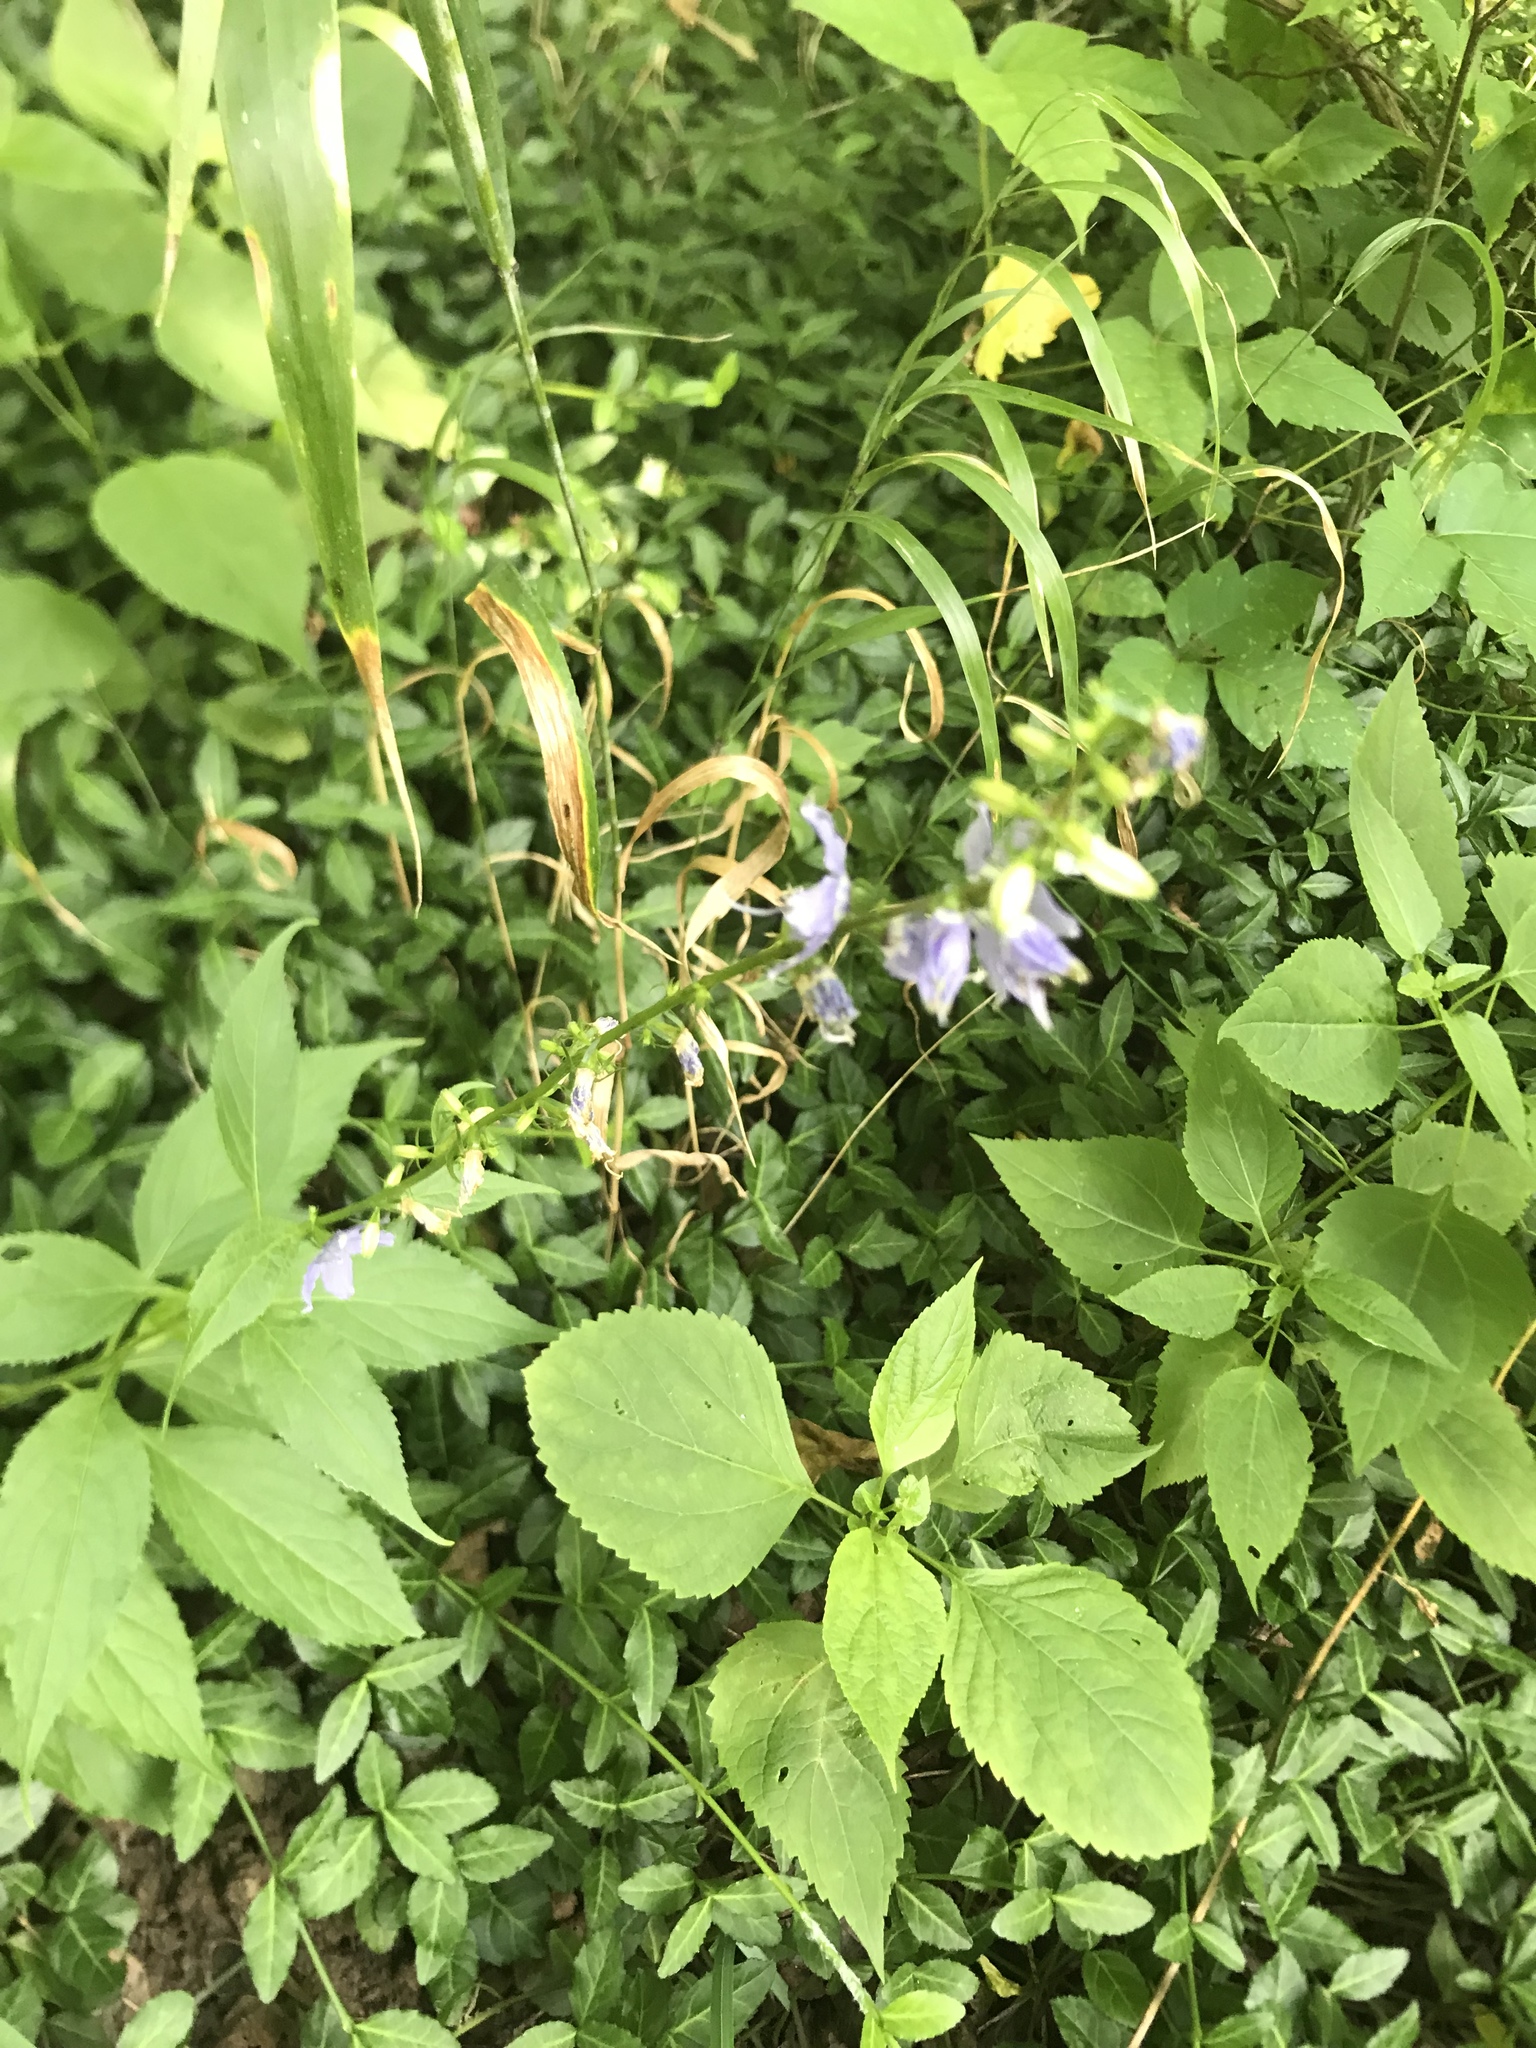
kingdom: Plantae
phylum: Tracheophyta
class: Magnoliopsida
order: Asterales
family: Campanulaceae
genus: Campanulastrum
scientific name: Campanulastrum americanum
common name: American bellflower
